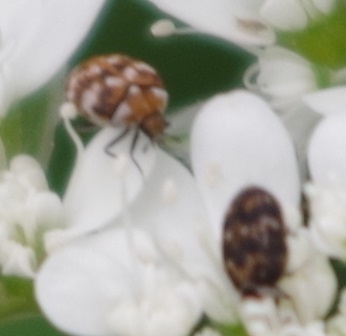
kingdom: Animalia
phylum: Arthropoda
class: Insecta
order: Coleoptera
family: Dermestidae
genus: Anthrenus
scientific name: Anthrenus verbasci
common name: Varied carpet beetle
